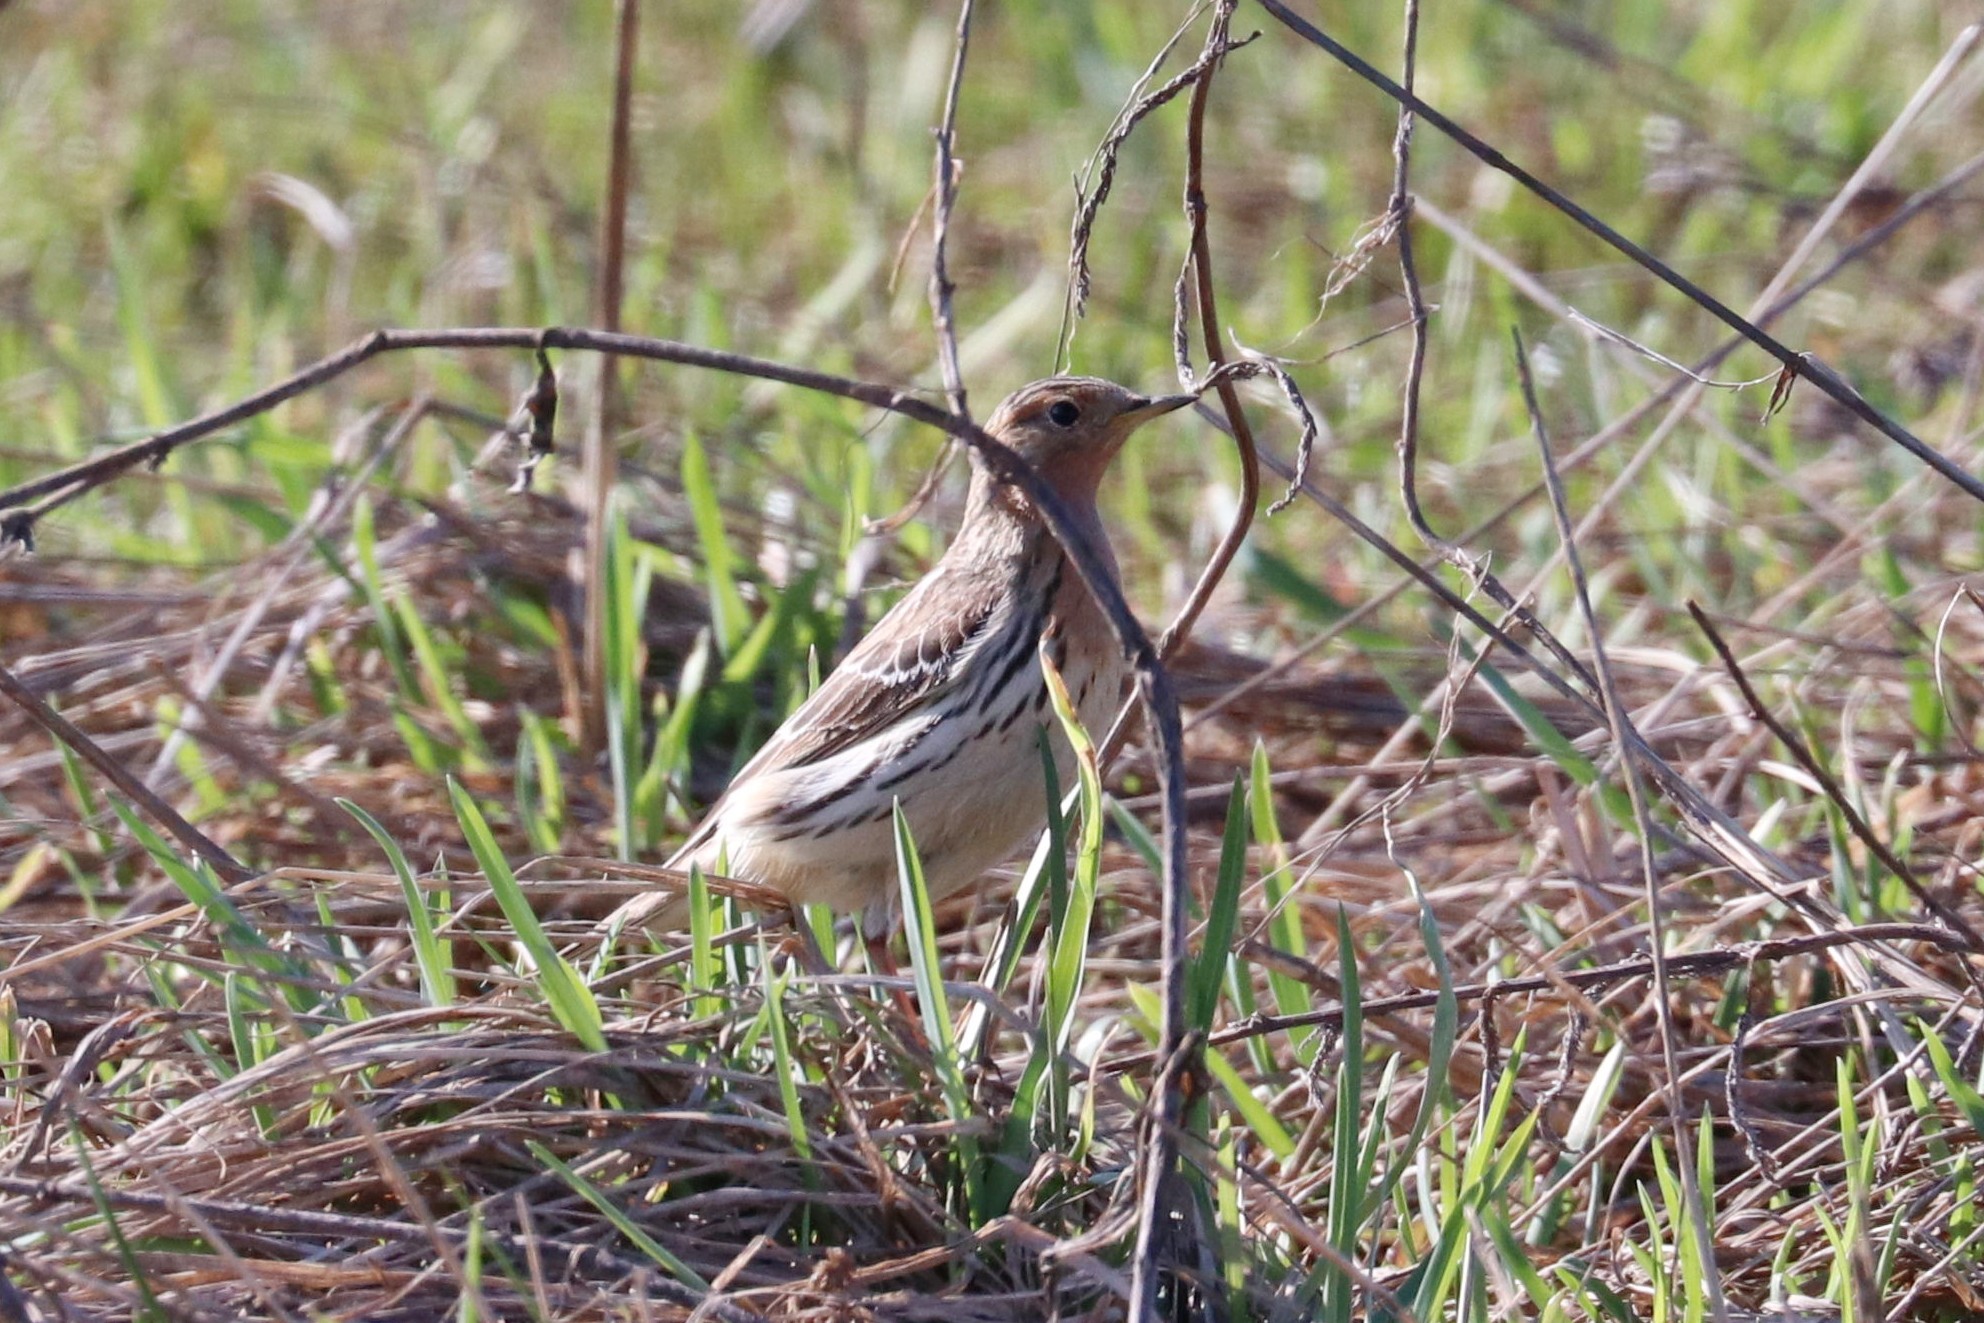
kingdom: Animalia
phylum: Chordata
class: Aves
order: Passeriformes
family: Motacillidae
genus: Anthus
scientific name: Anthus cervinus
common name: Red-throated pipit
